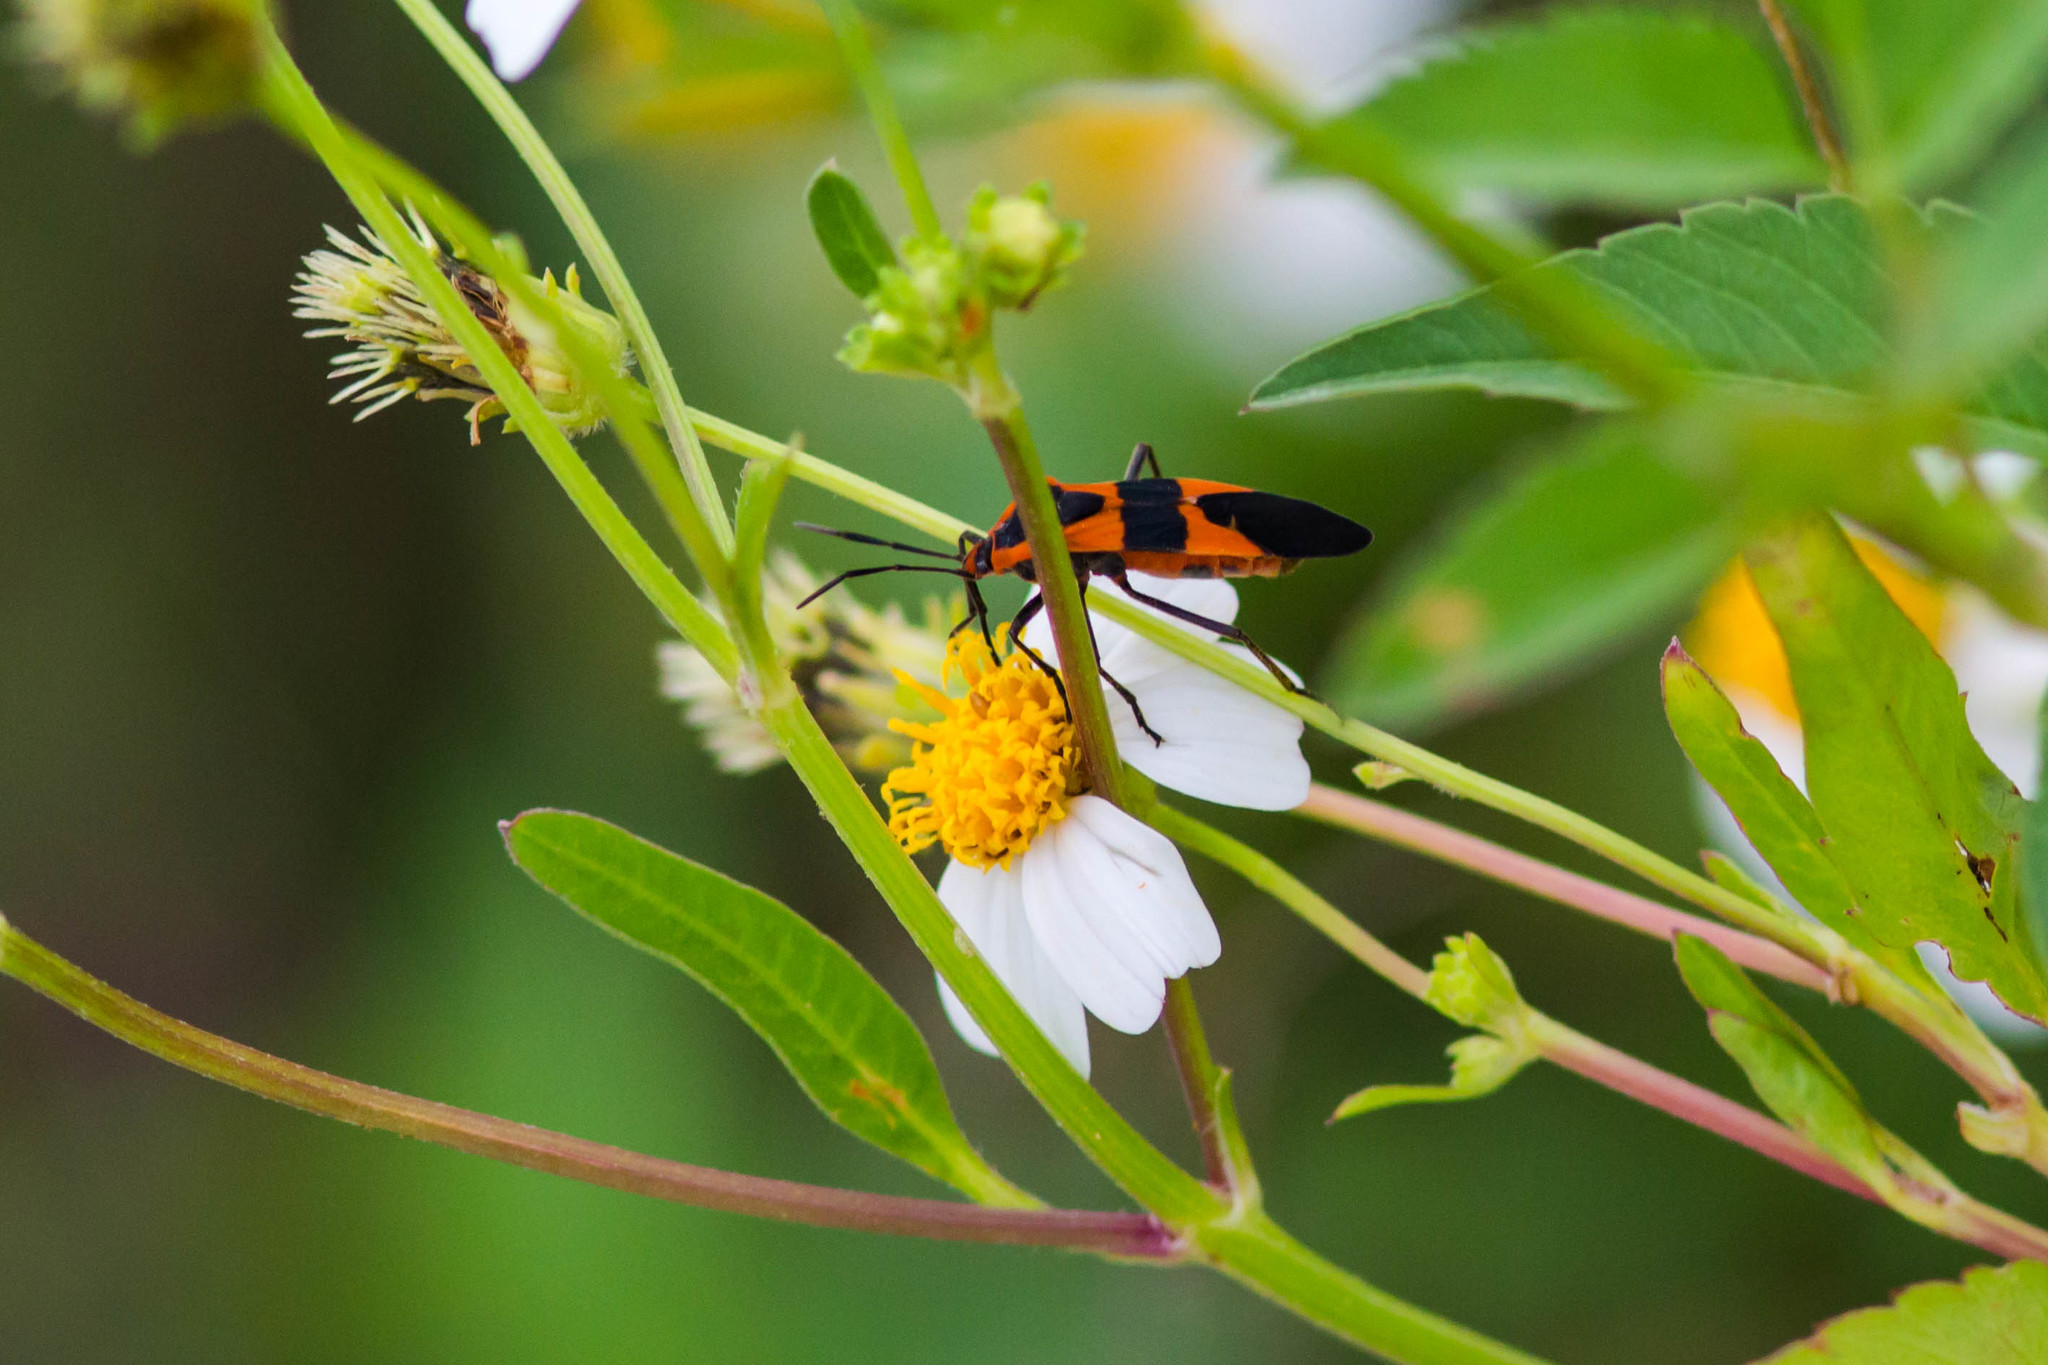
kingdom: Animalia
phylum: Arthropoda
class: Insecta
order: Hemiptera
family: Lygaeidae
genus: Oncopeltus
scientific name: Oncopeltus fasciatus
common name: Large milkweed bug
